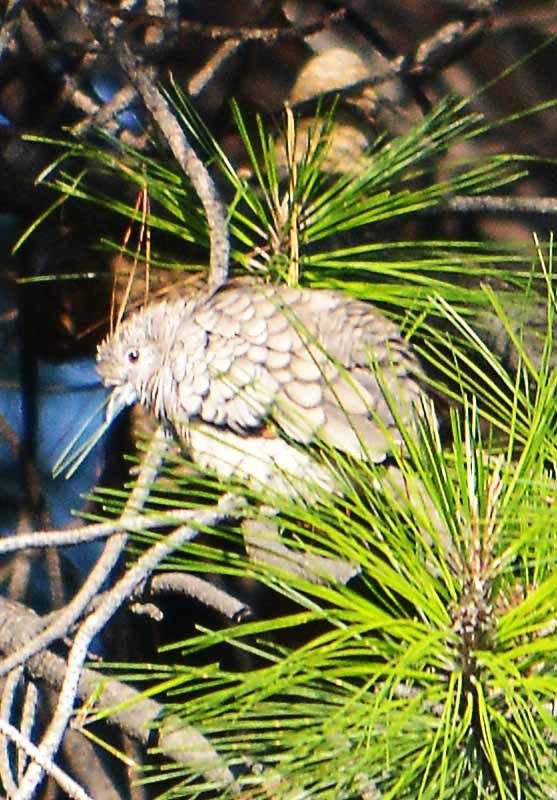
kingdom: Animalia
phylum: Chordata
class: Aves
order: Columbiformes
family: Columbidae
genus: Columbina
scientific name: Columbina inca
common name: Inca dove
